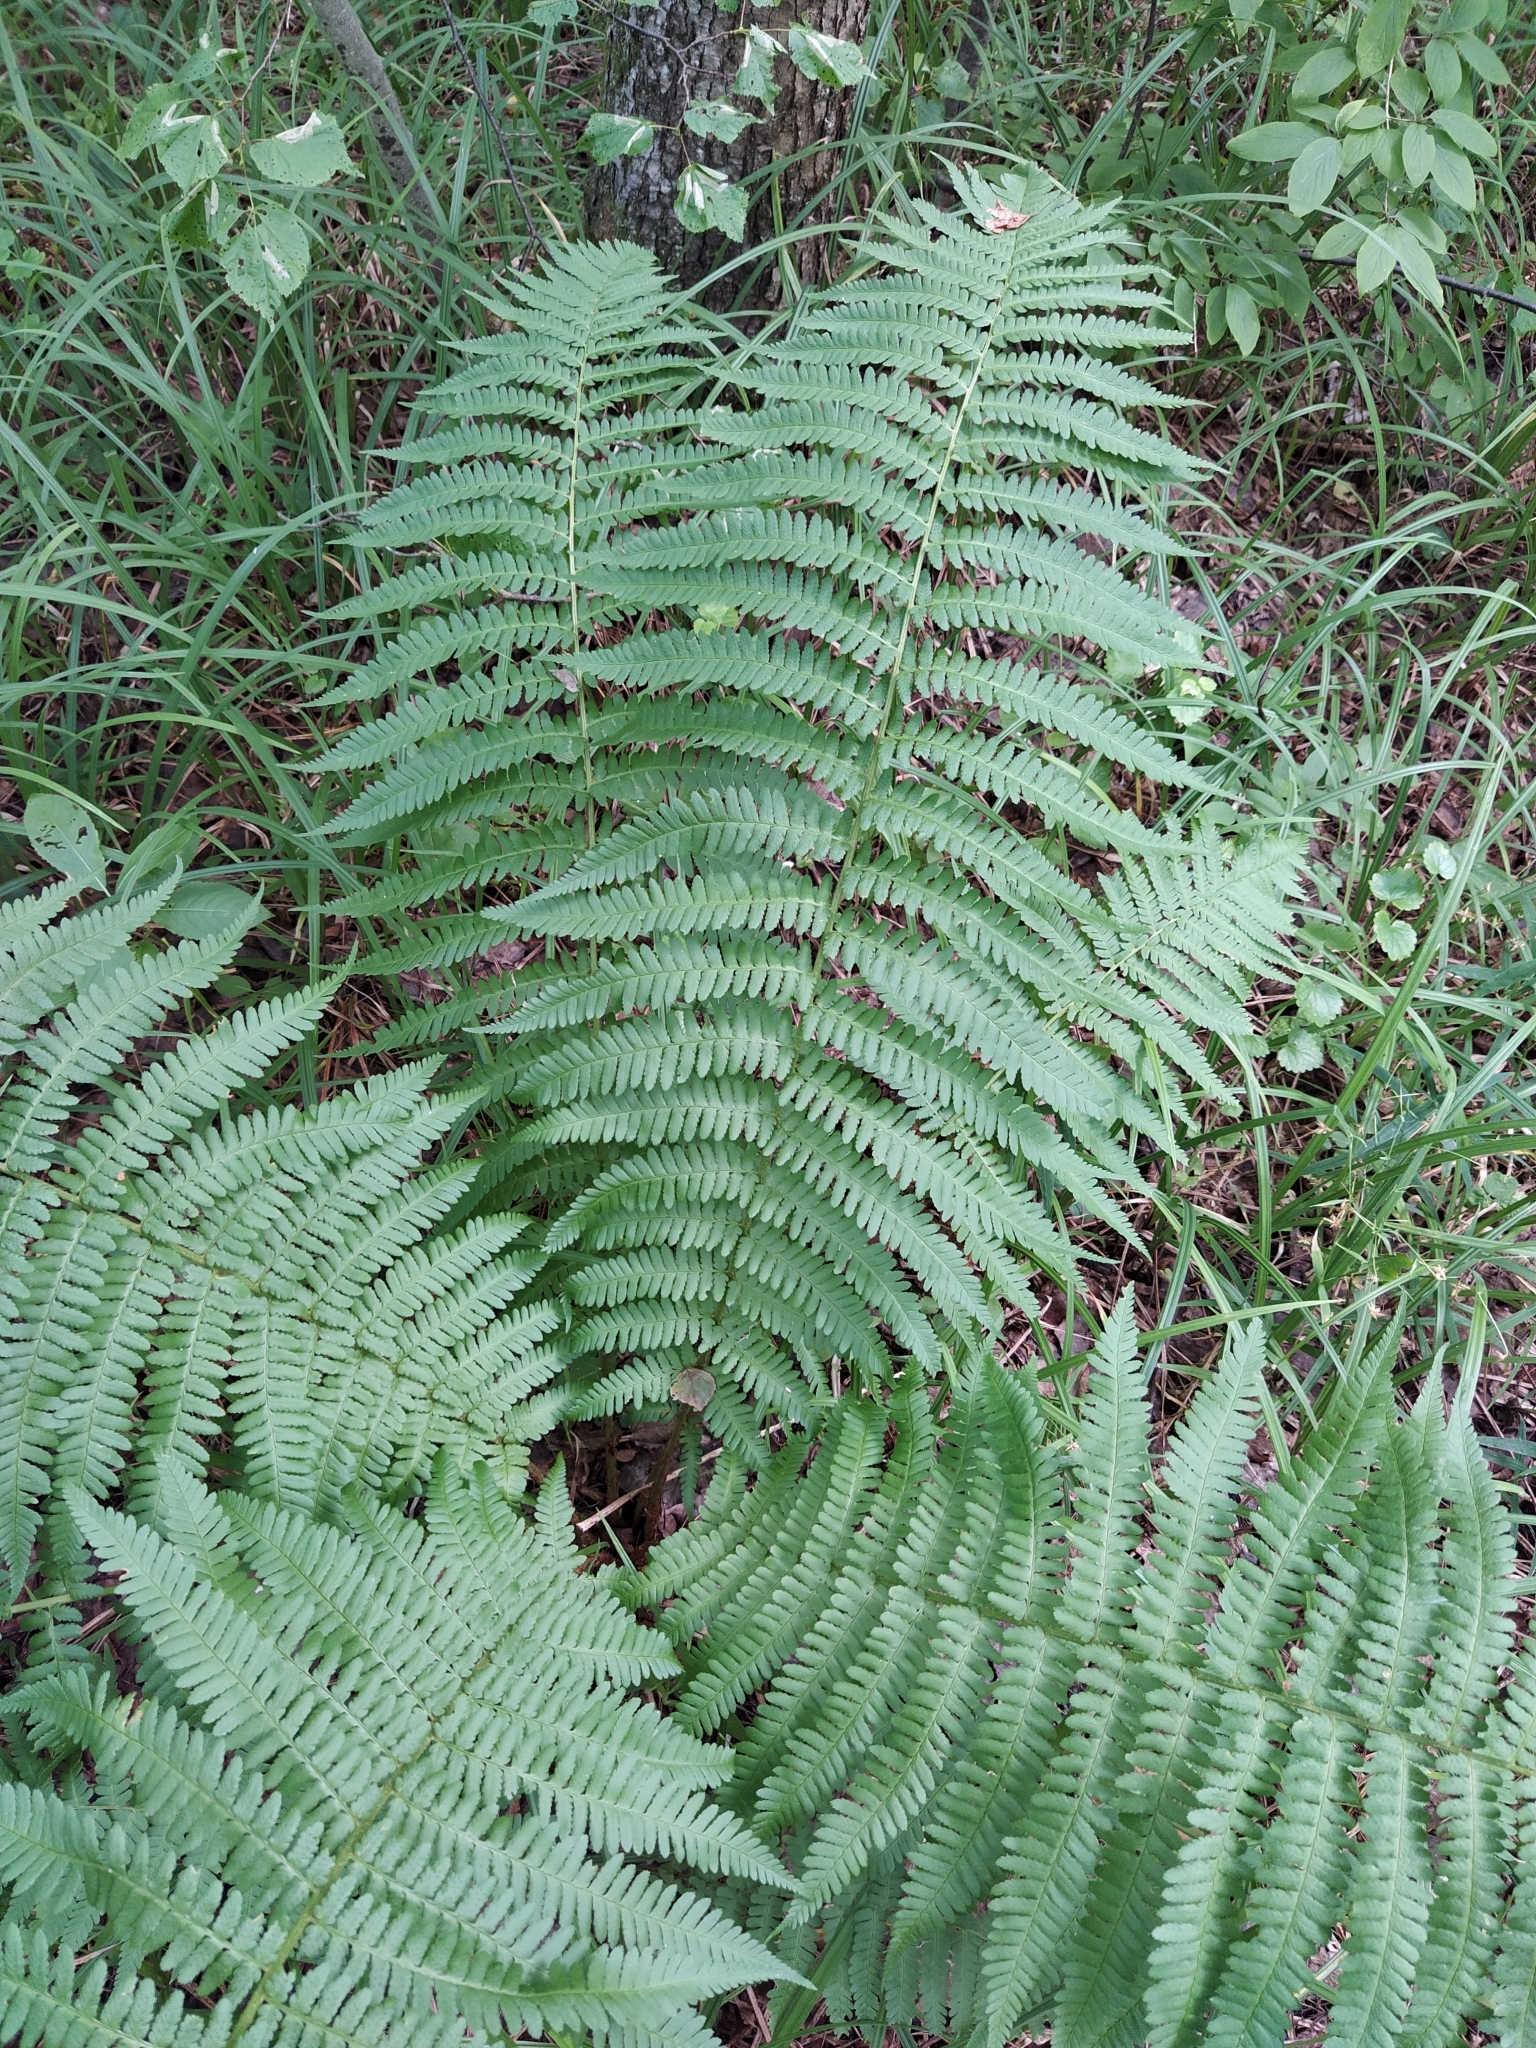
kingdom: Plantae
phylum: Tracheophyta
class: Polypodiopsida
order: Polypodiales
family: Dryopteridaceae
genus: Dryopteris
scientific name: Dryopteris filix-mas
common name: Male fern
